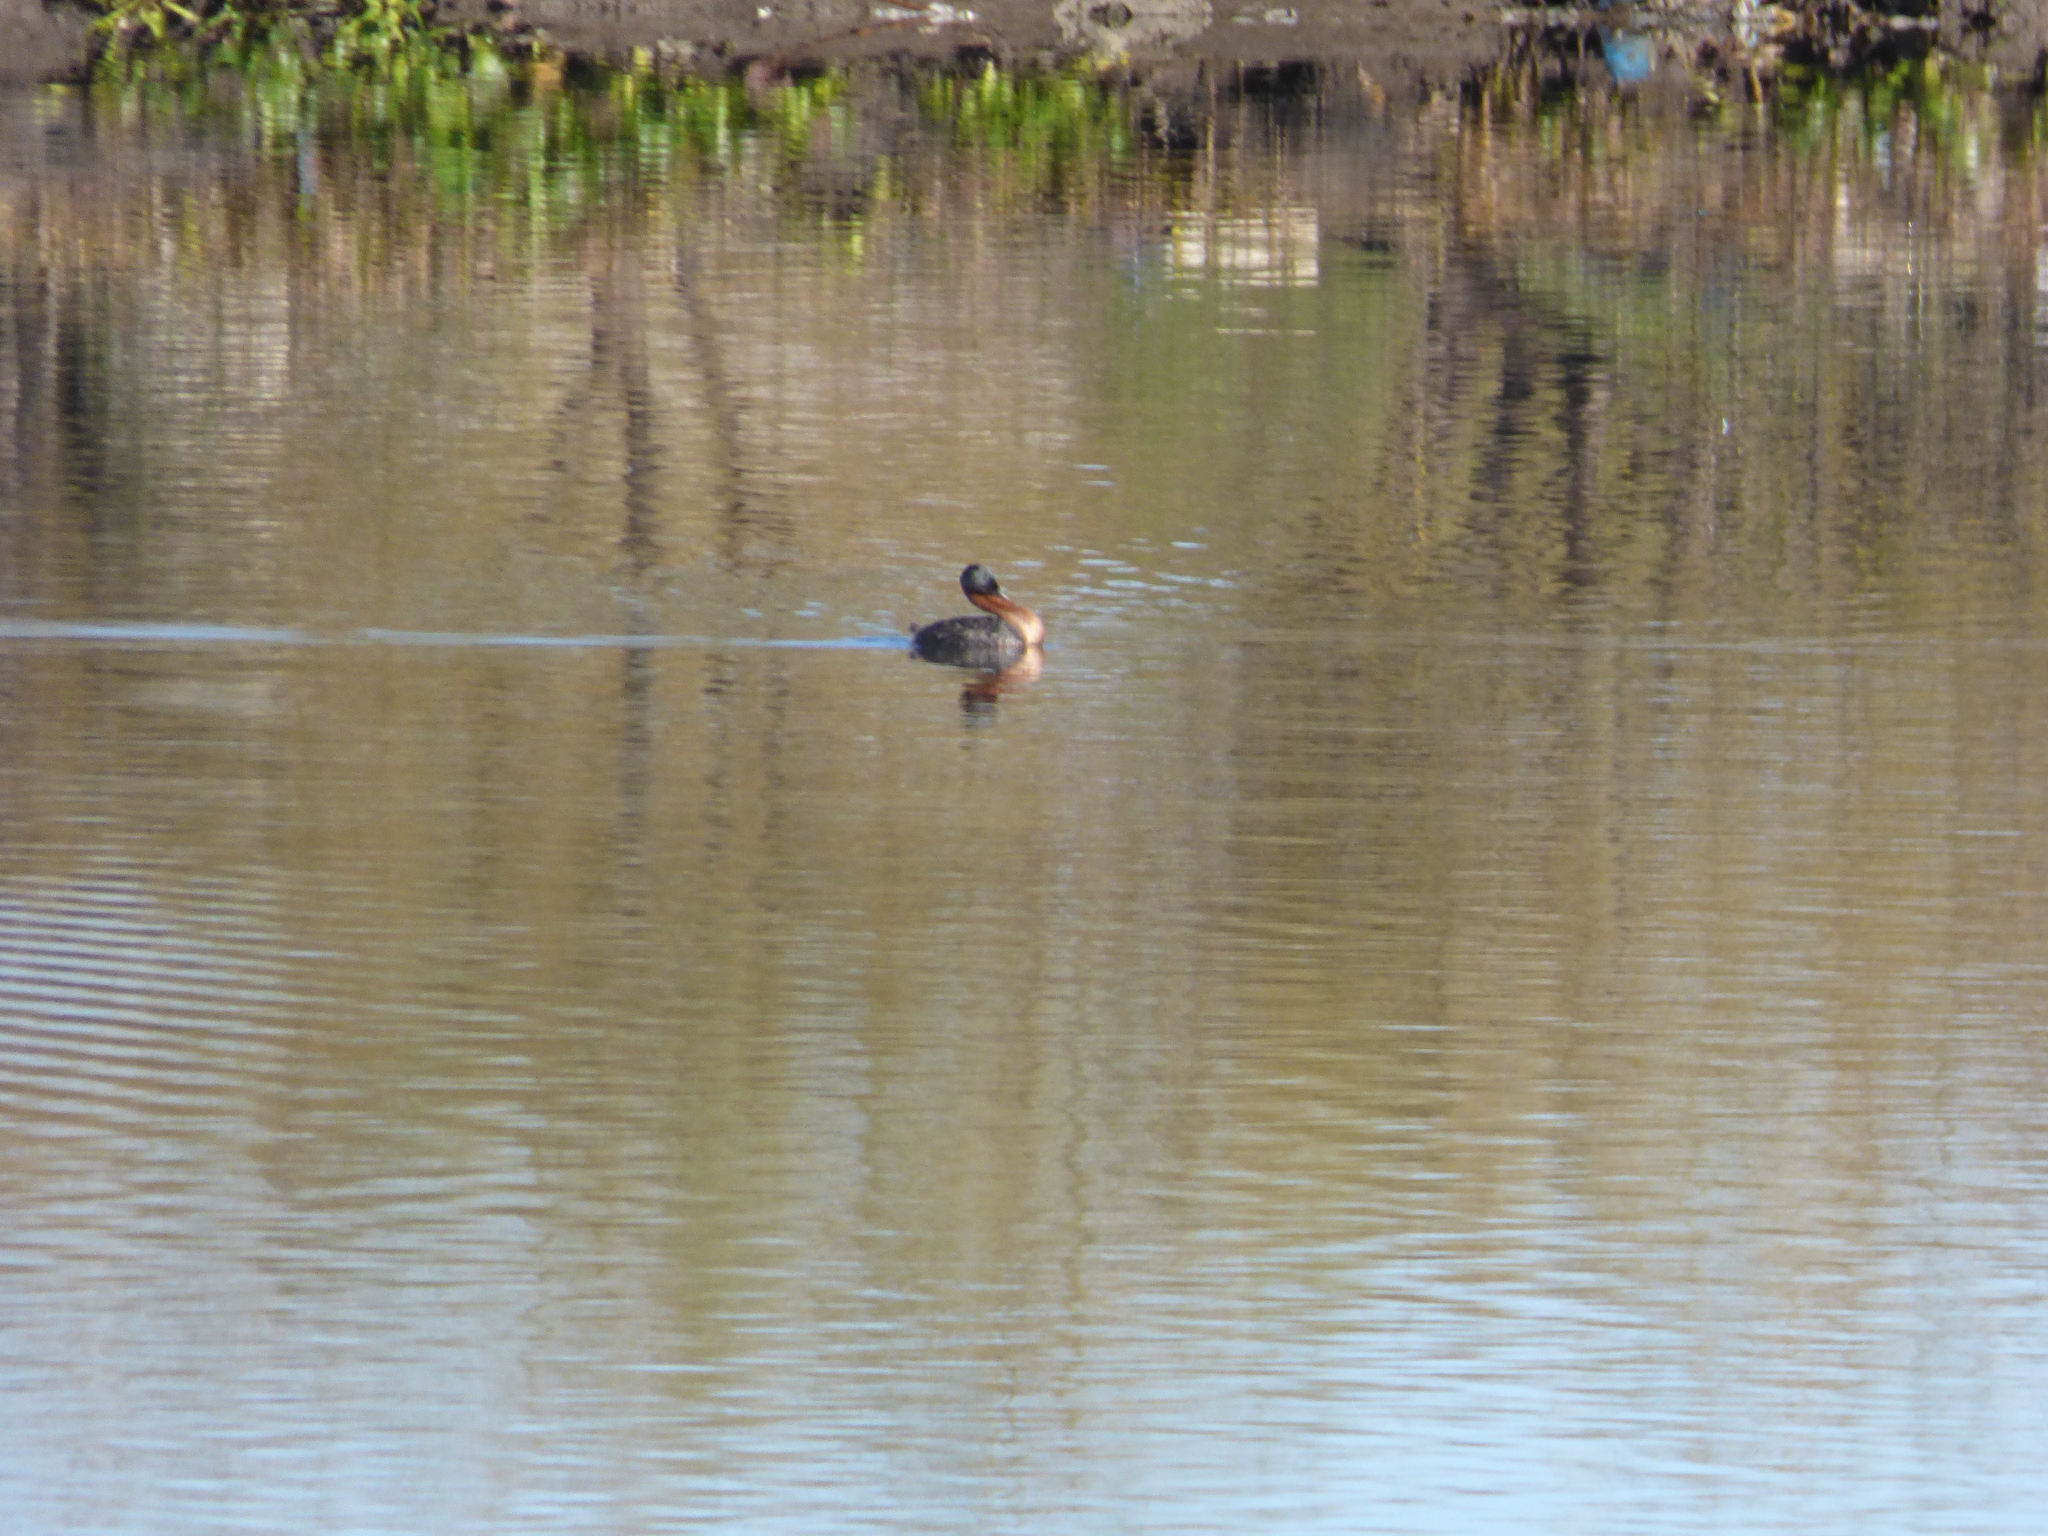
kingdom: Animalia
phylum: Chordata
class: Aves
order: Podicipediformes
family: Podicipedidae
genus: Podiceps
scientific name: Podiceps major
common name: Great grebe
